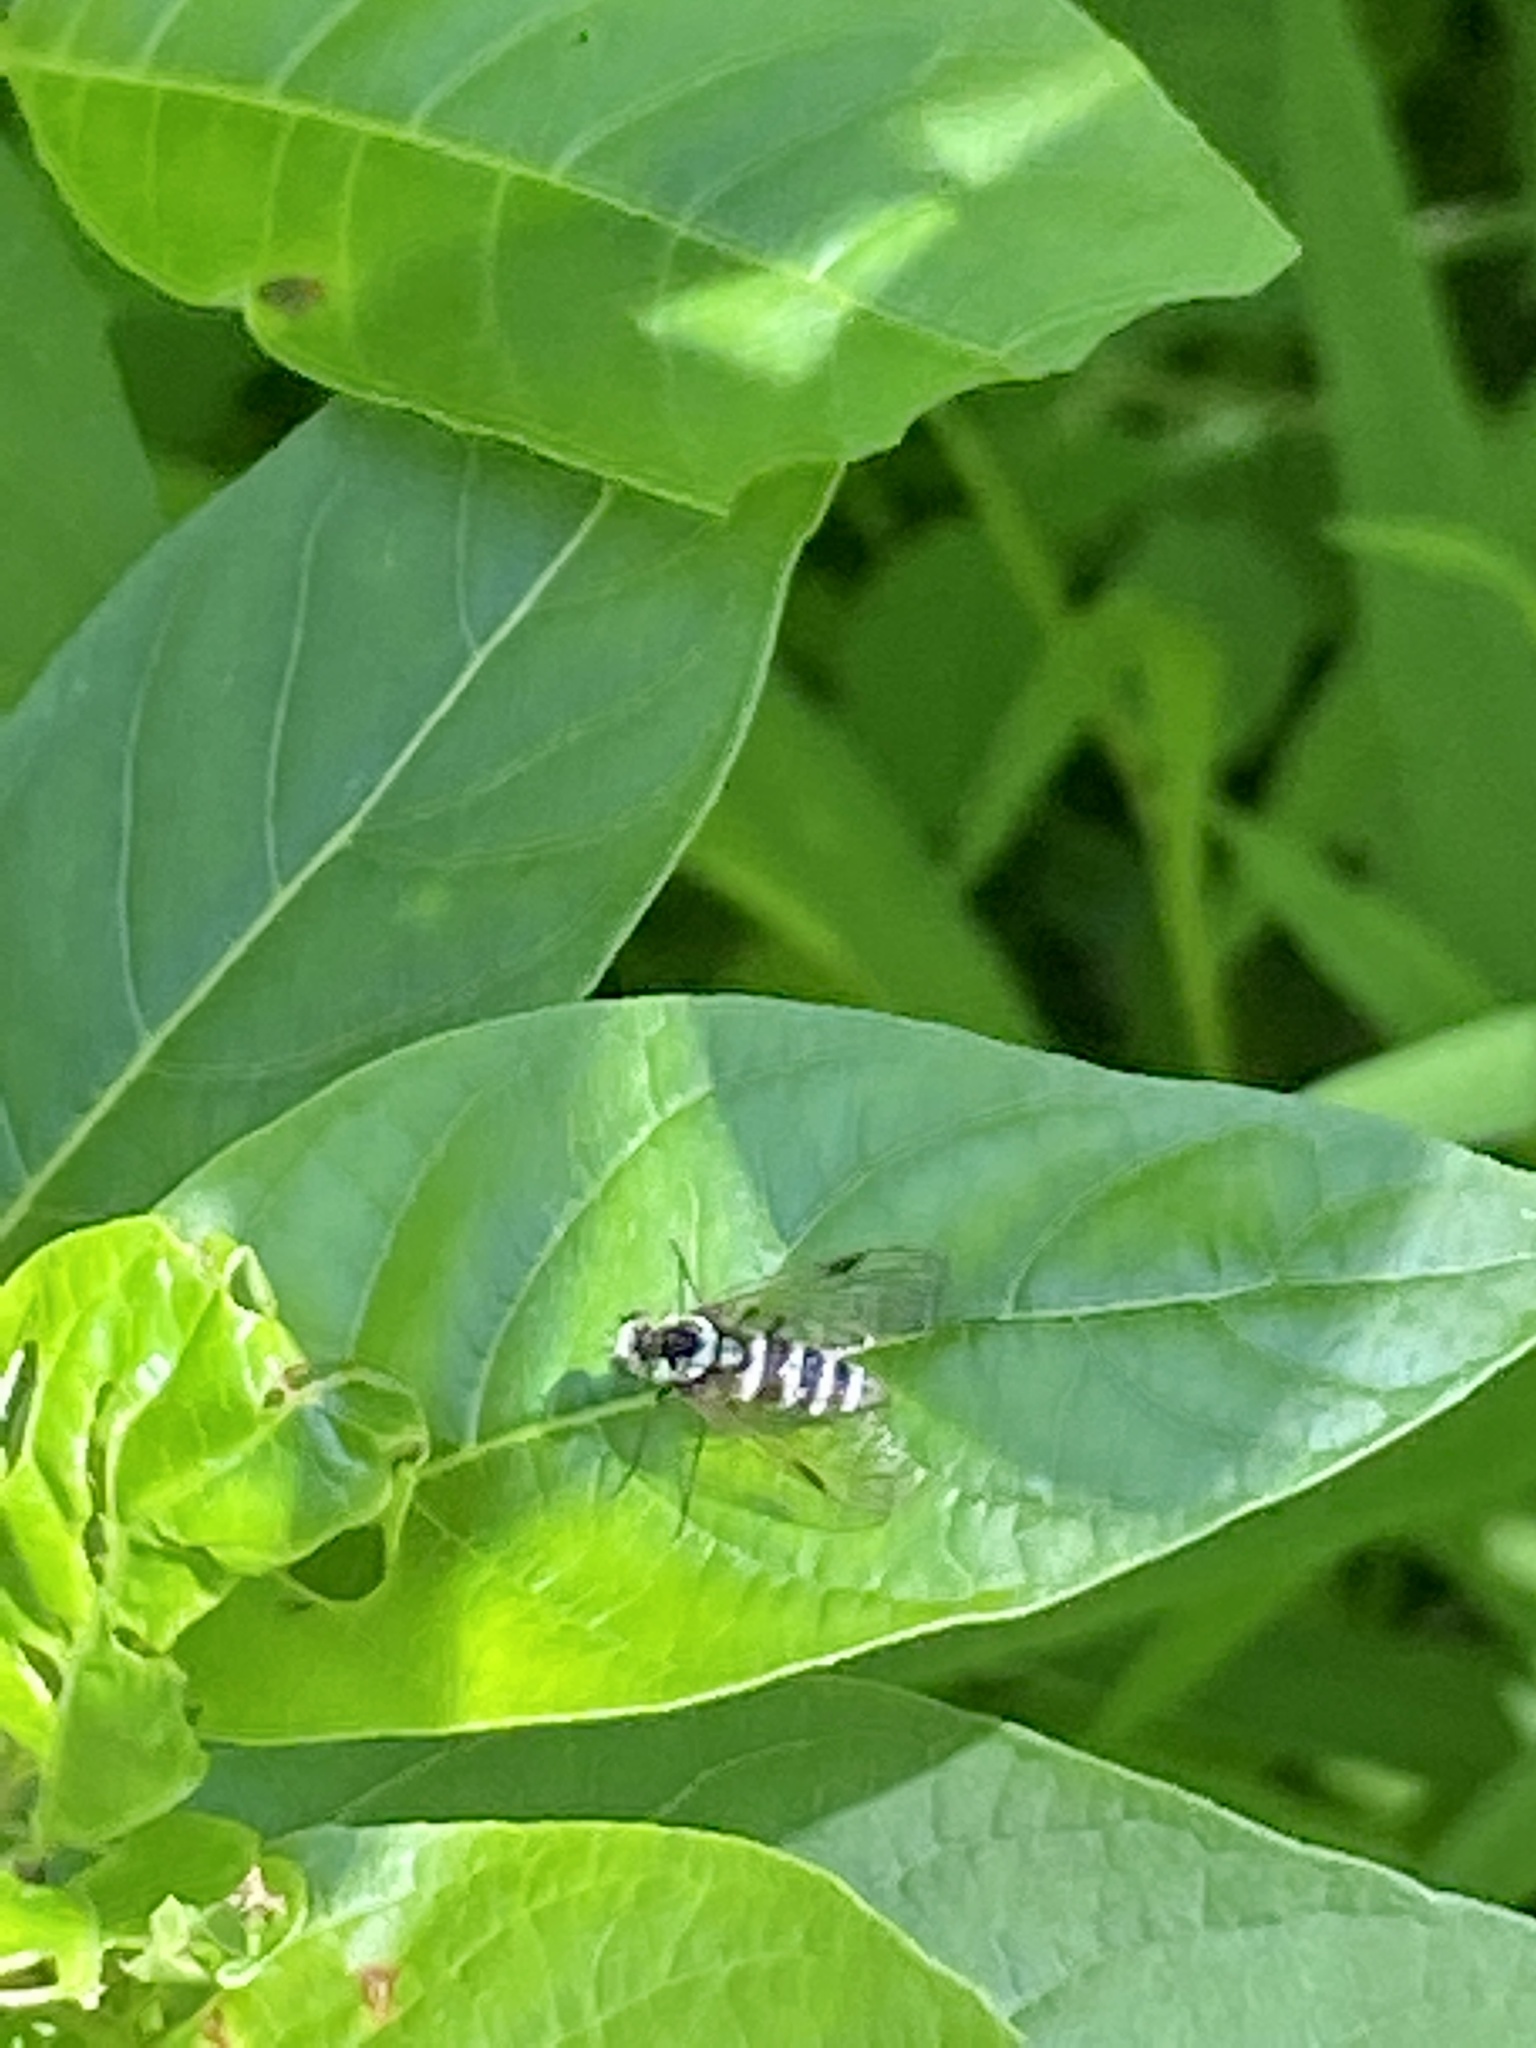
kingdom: Animalia
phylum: Arthropoda
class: Insecta
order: Diptera
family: Rhagionidae
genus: Chrysopilus
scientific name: Chrysopilus fasciatus
